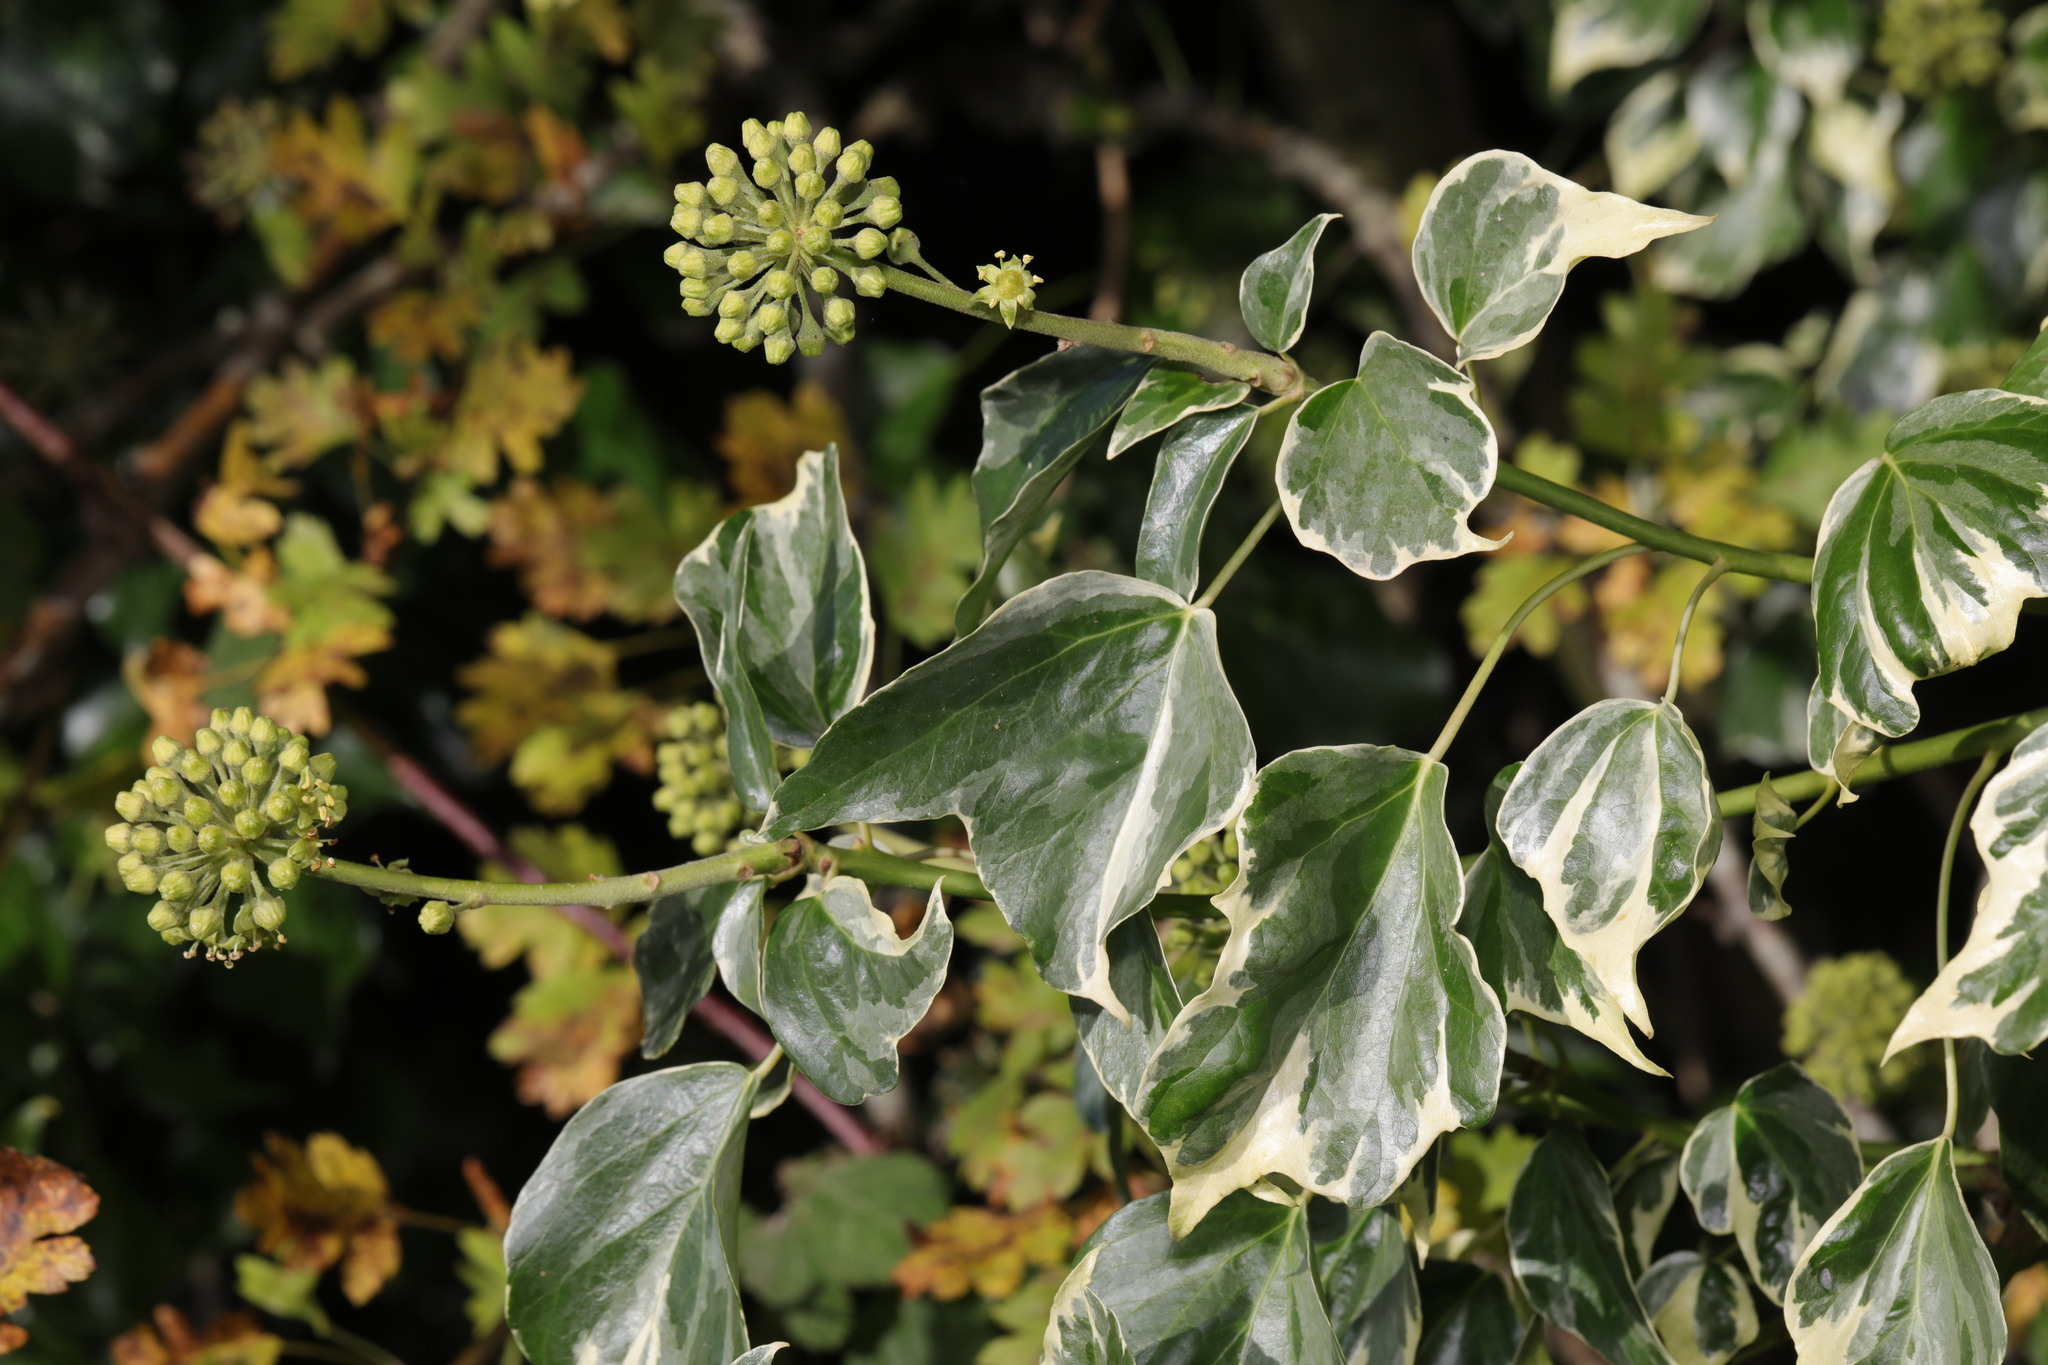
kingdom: Plantae
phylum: Tracheophyta
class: Magnoliopsida
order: Apiales
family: Araliaceae
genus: Hedera
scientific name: Hedera helix
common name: Ivy
